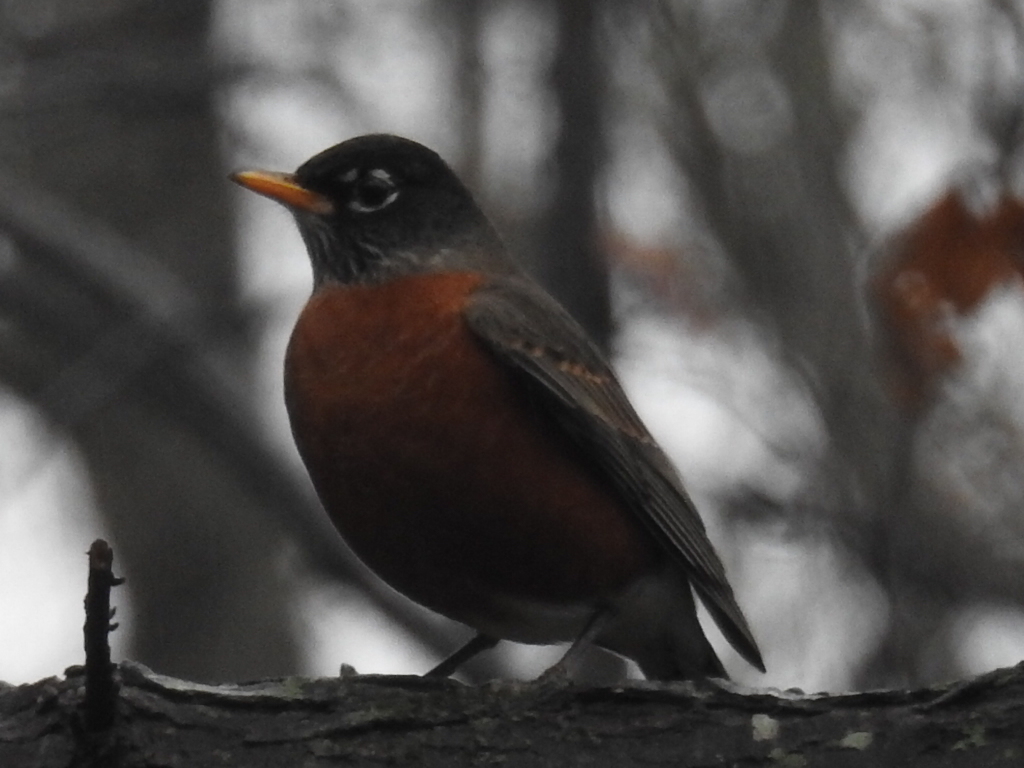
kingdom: Animalia
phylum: Chordata
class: Aves
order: Passeriformes
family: Turdidae
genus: Turdus
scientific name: Turdus migratorius
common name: American robin
